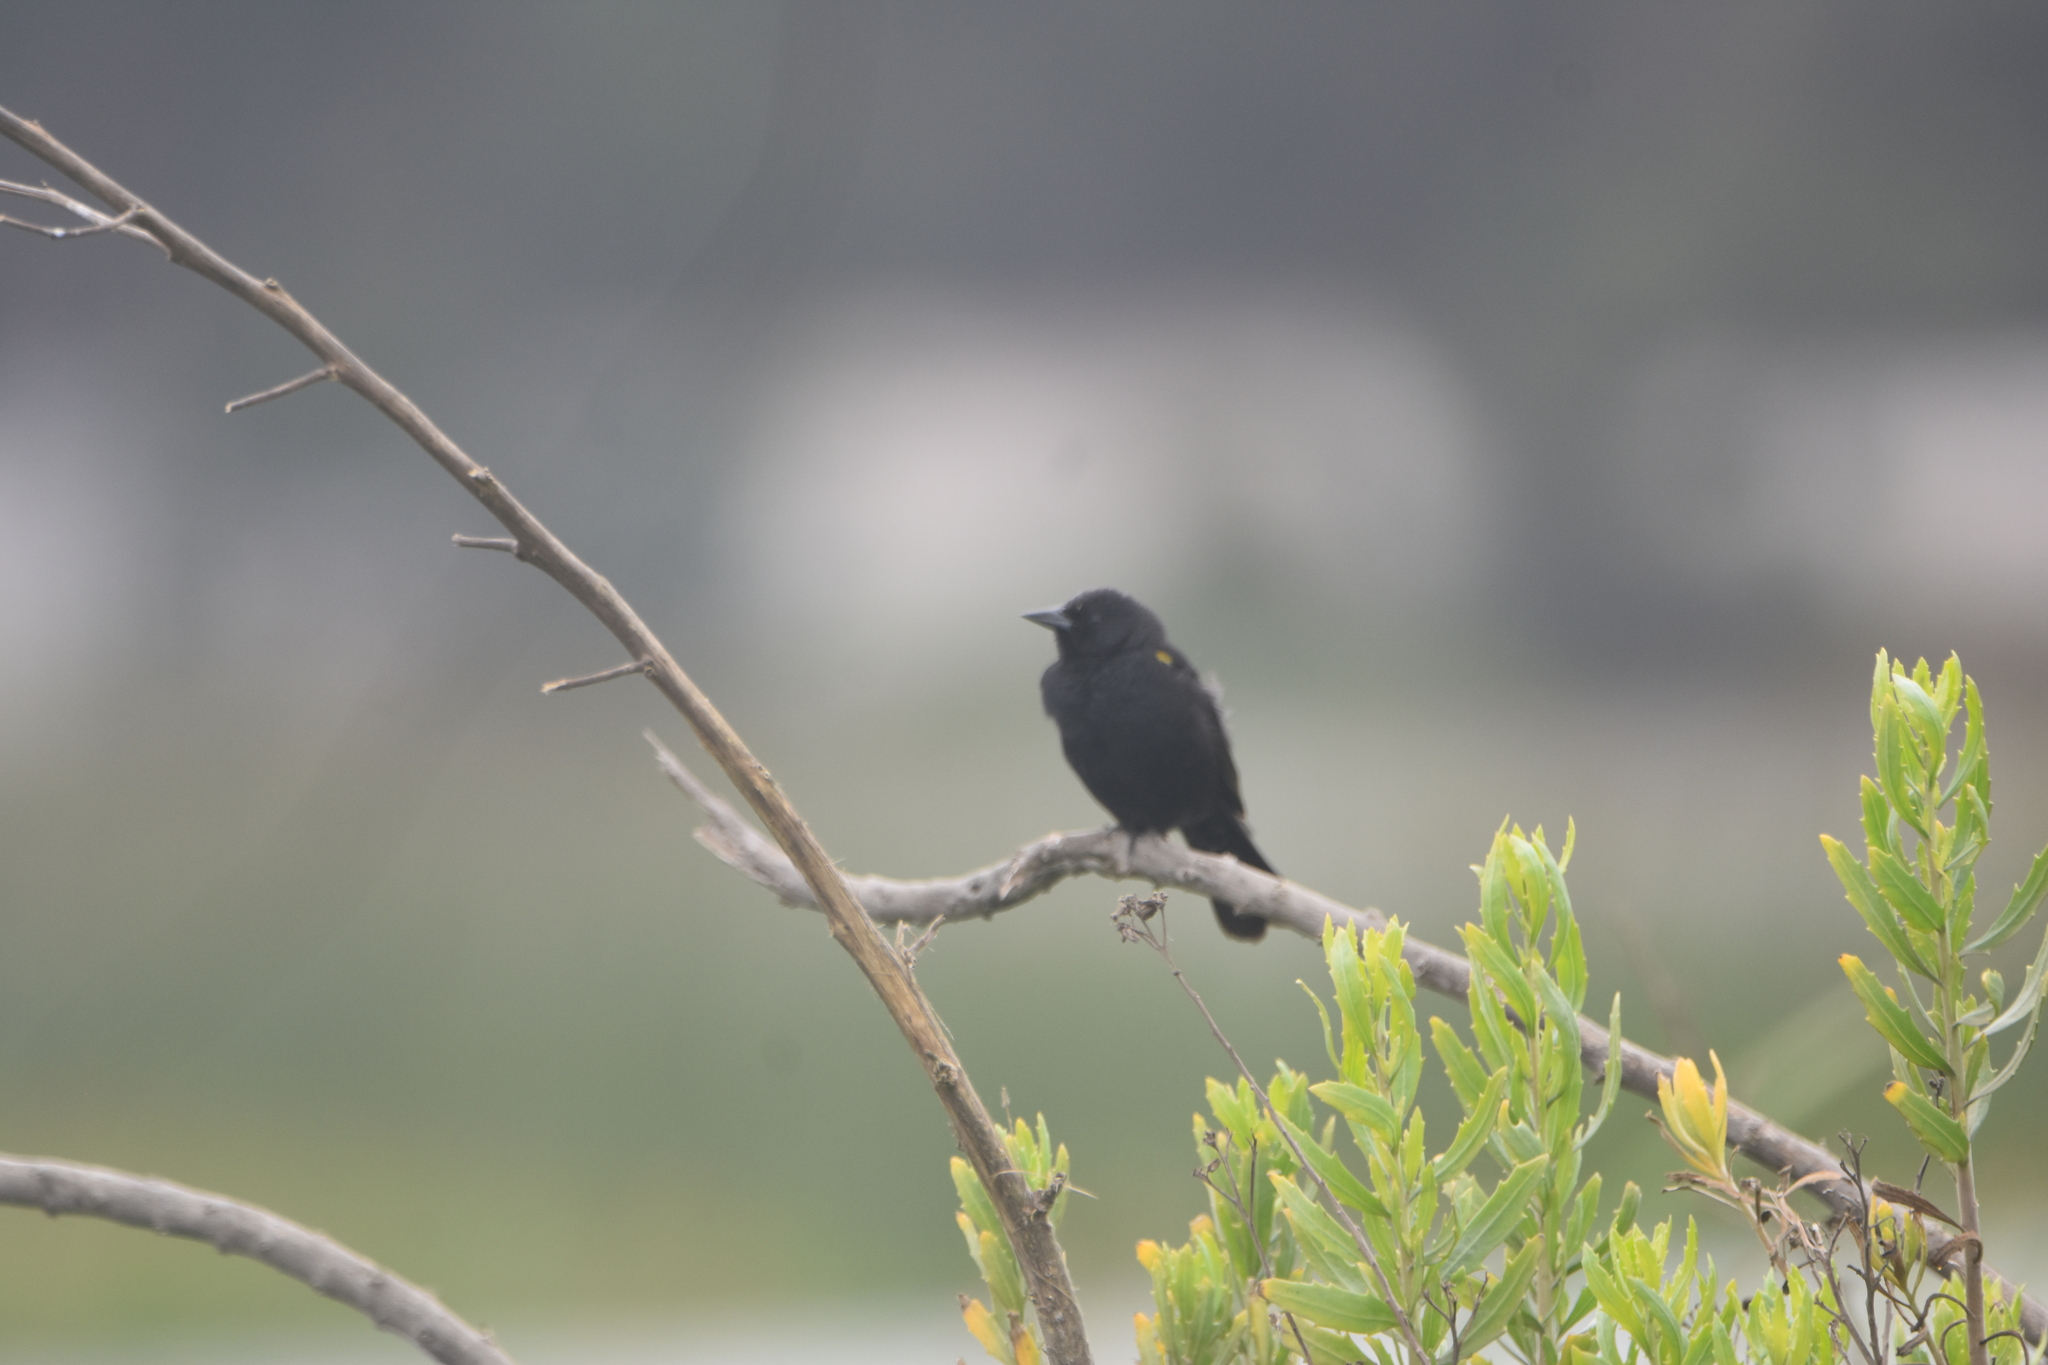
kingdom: Animalia
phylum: Chordata
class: Aves
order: Passeriformes
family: Icteridae
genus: Agelasticus
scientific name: Agelasticus thilius
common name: Yellow-winged blackbird
